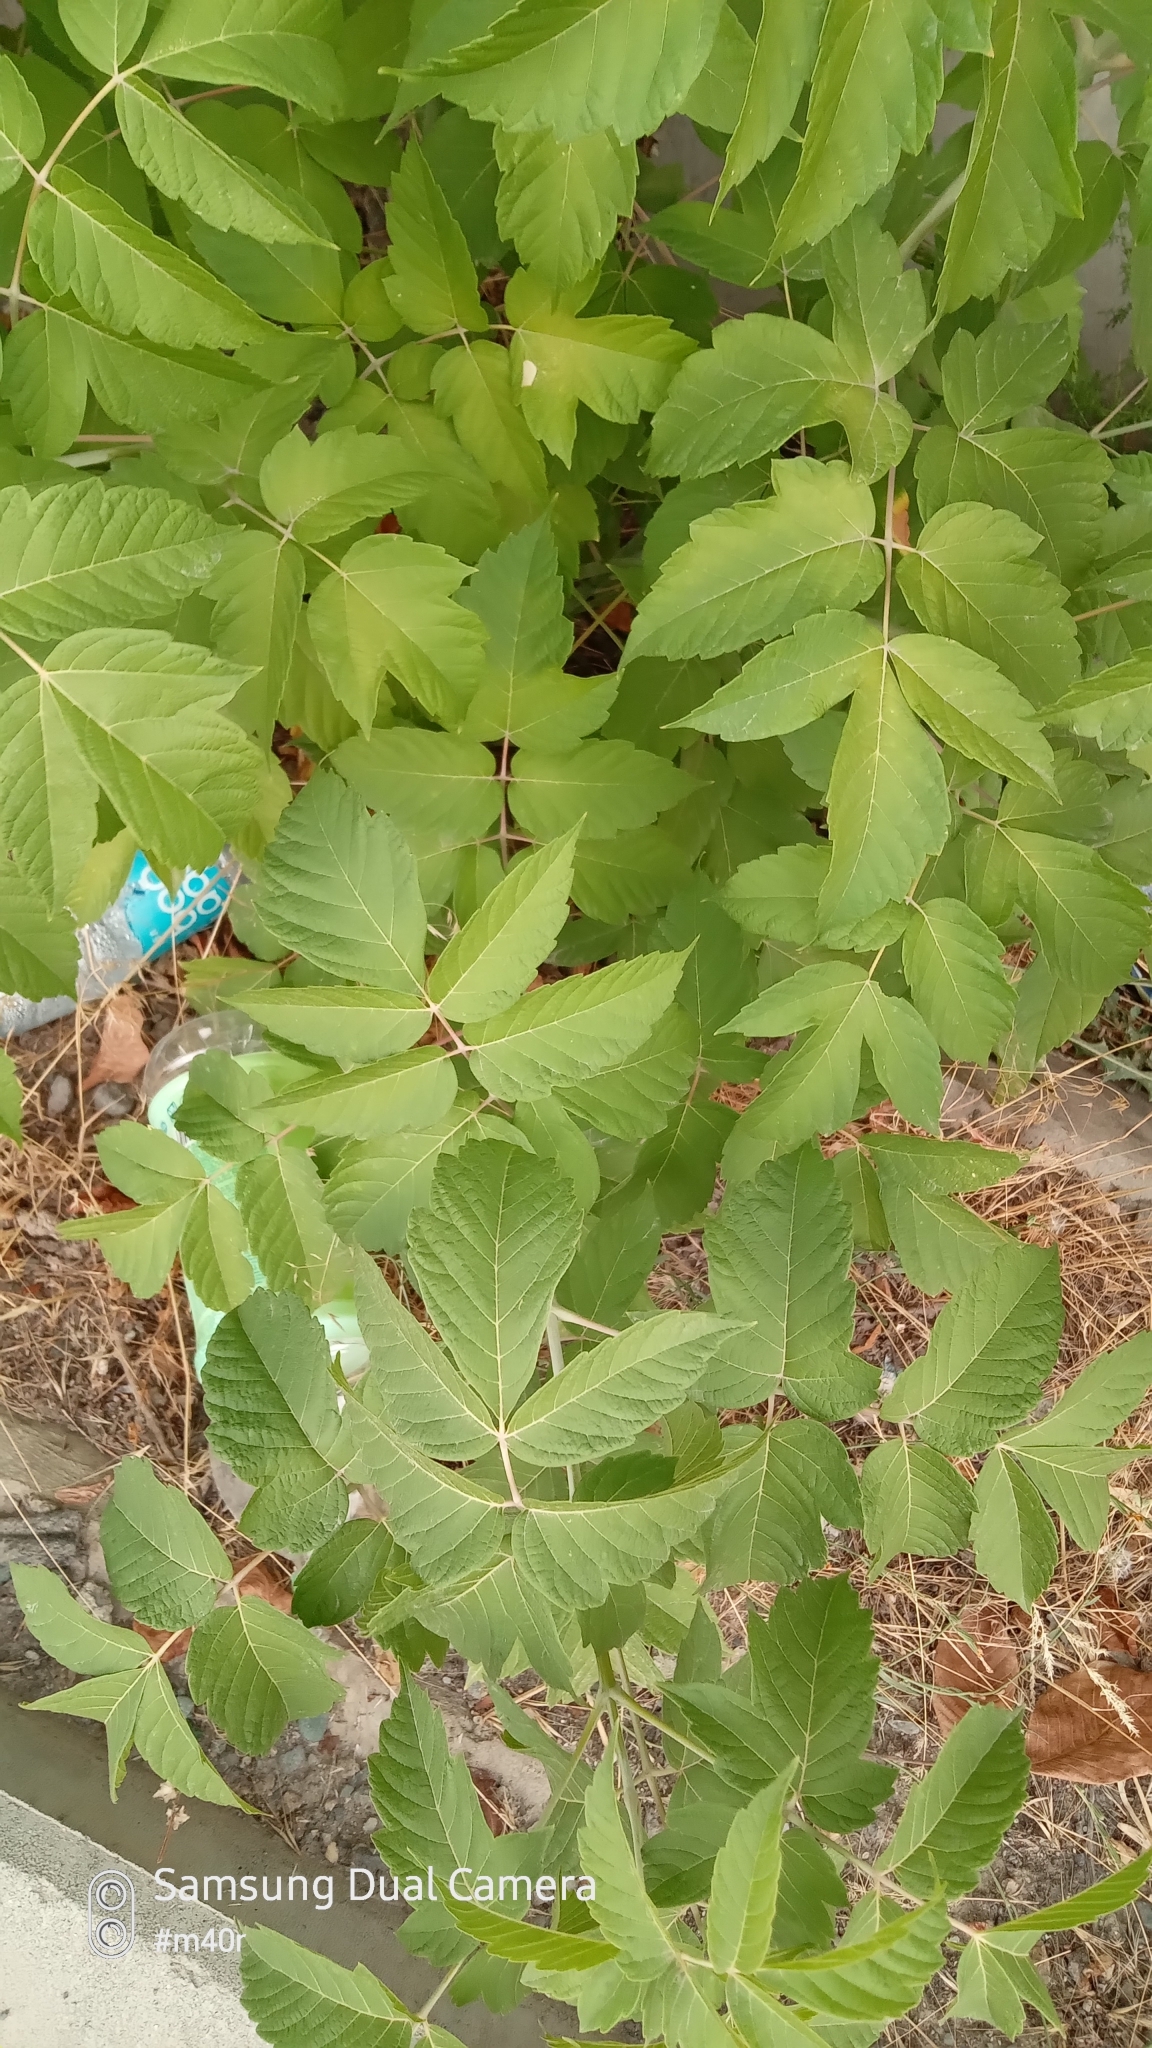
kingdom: Plantae
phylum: Tracheophyta
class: Magnoliopsida
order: Sapindales
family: Sapindaceae
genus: Acer
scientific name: Acer negundo
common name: Ashleaf maple
